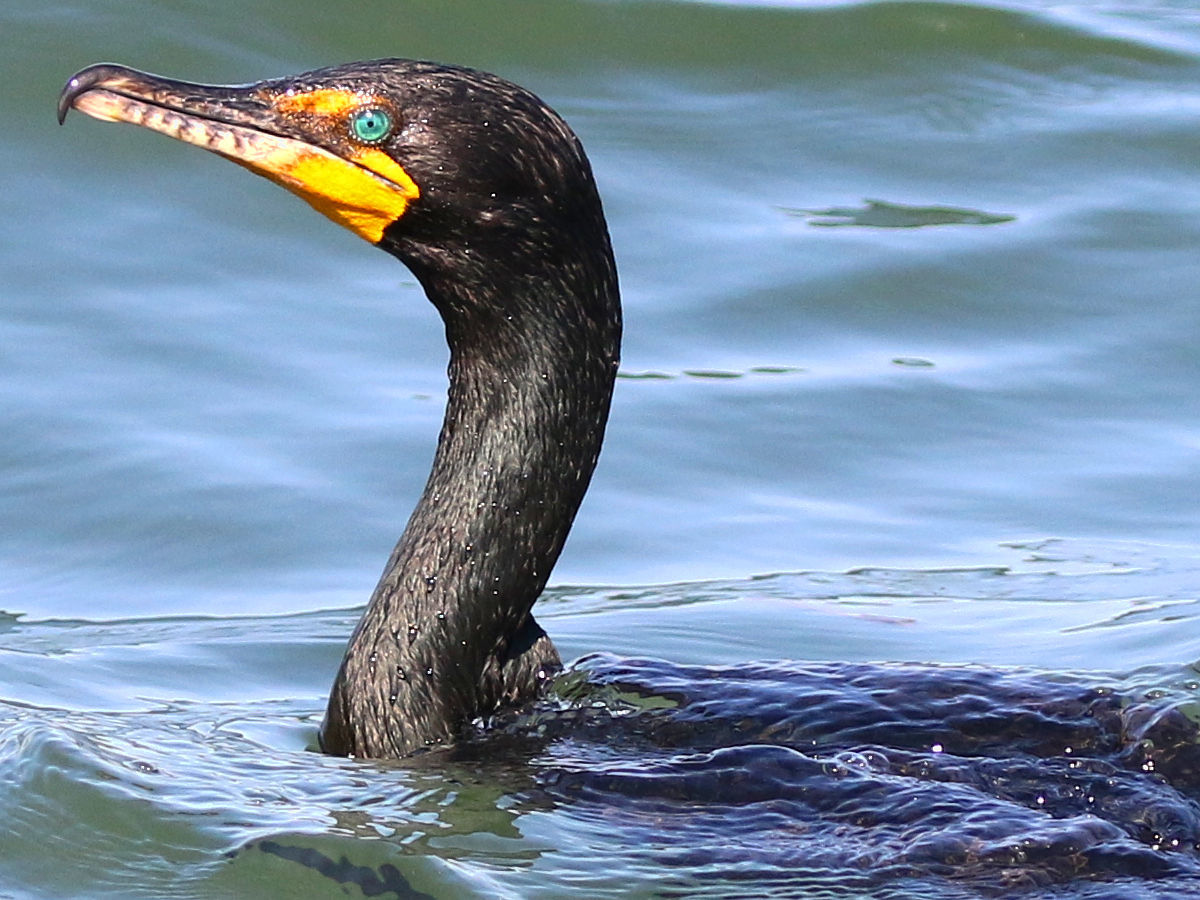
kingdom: Animalia
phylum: Chordata
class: Aves
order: Suliformes
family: Phalacrocoracidae
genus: Phalacrocorax
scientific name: Phalacrocorax auritus
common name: Double-crested cormorant
